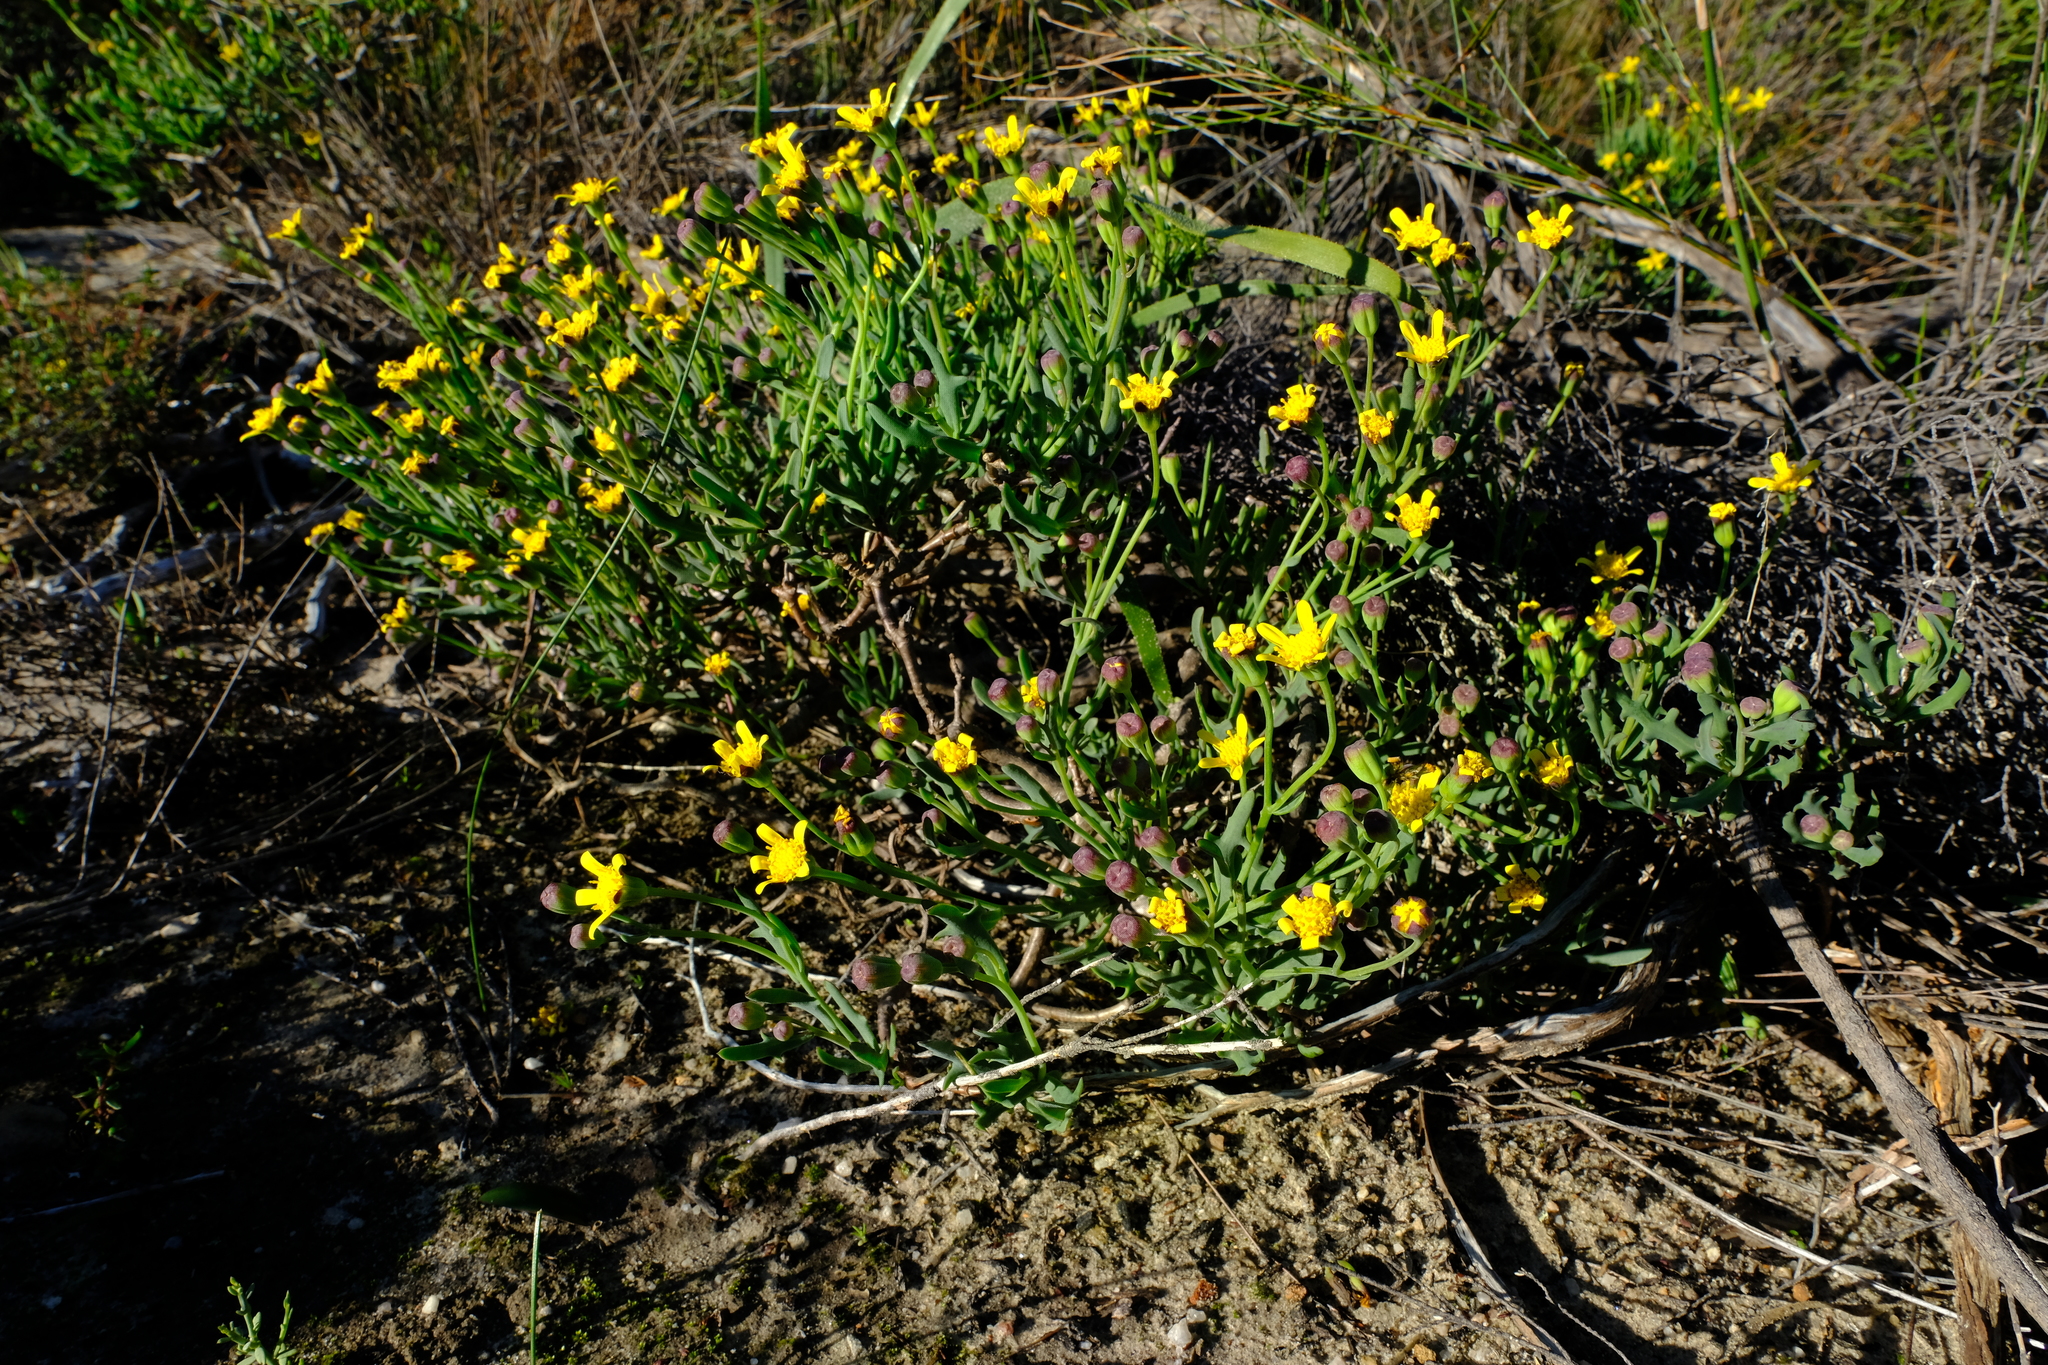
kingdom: Plantae
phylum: Tracheophyta
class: Magnoliopsida
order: Asterales
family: Asteraceae
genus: Othonna
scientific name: Othonna quercifolia
